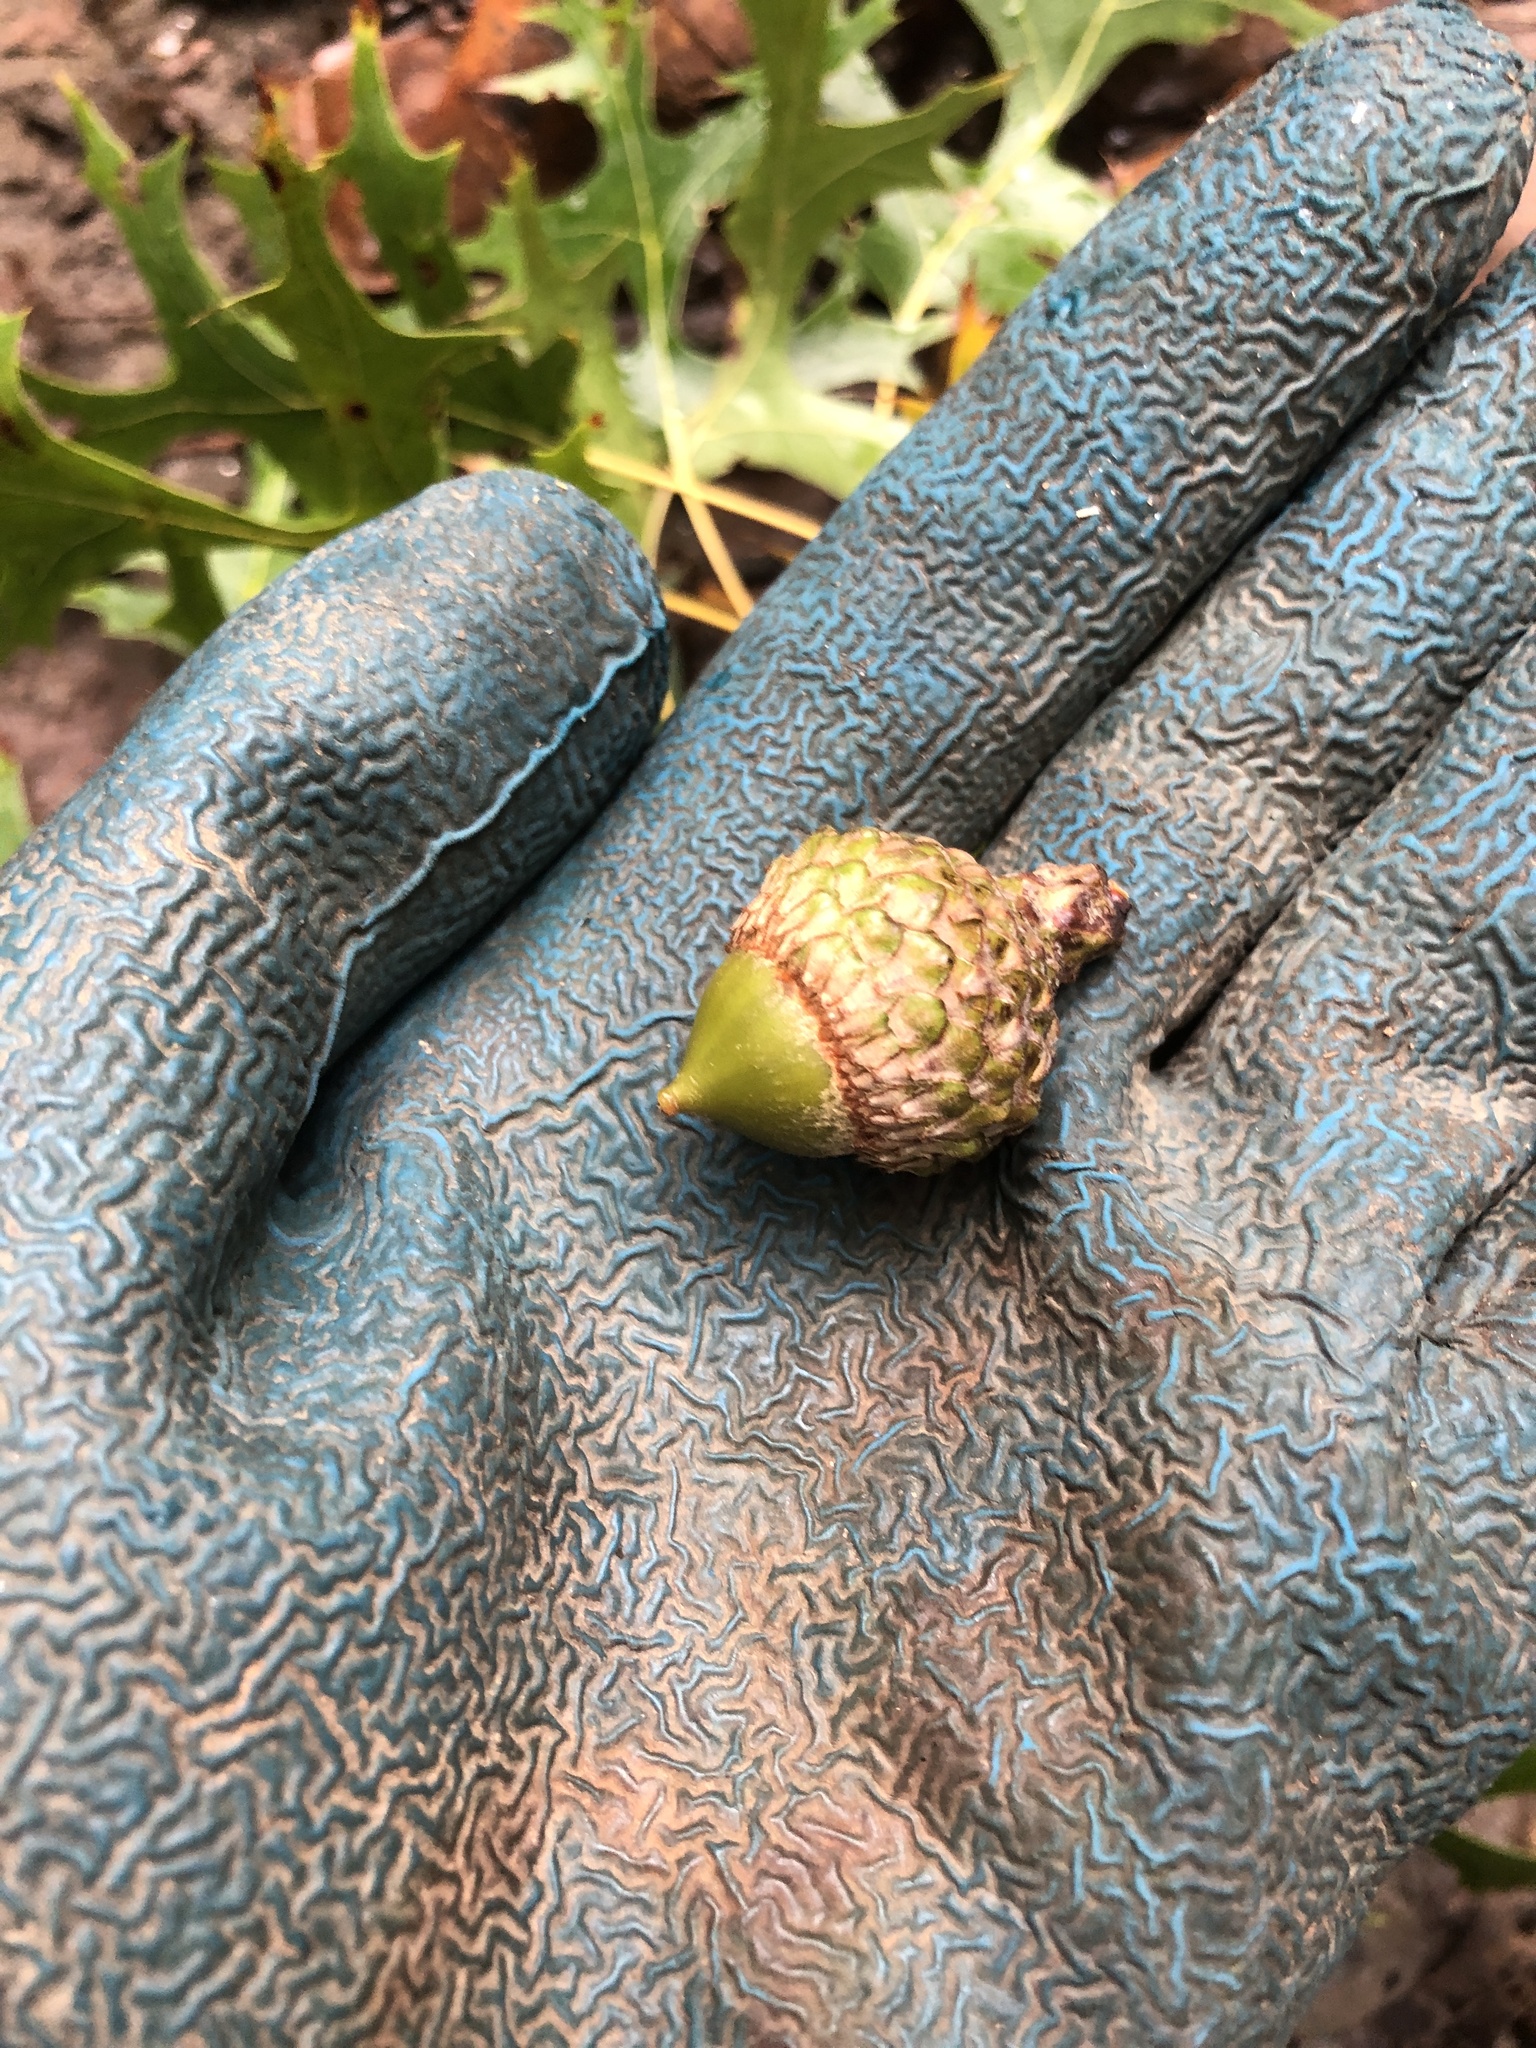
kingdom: Plantae
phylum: Tracheophyta
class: Magnoliopsida
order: Fagales
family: Fagaceae
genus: Quercus
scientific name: Quercus coccinea
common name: Scarlet oak
